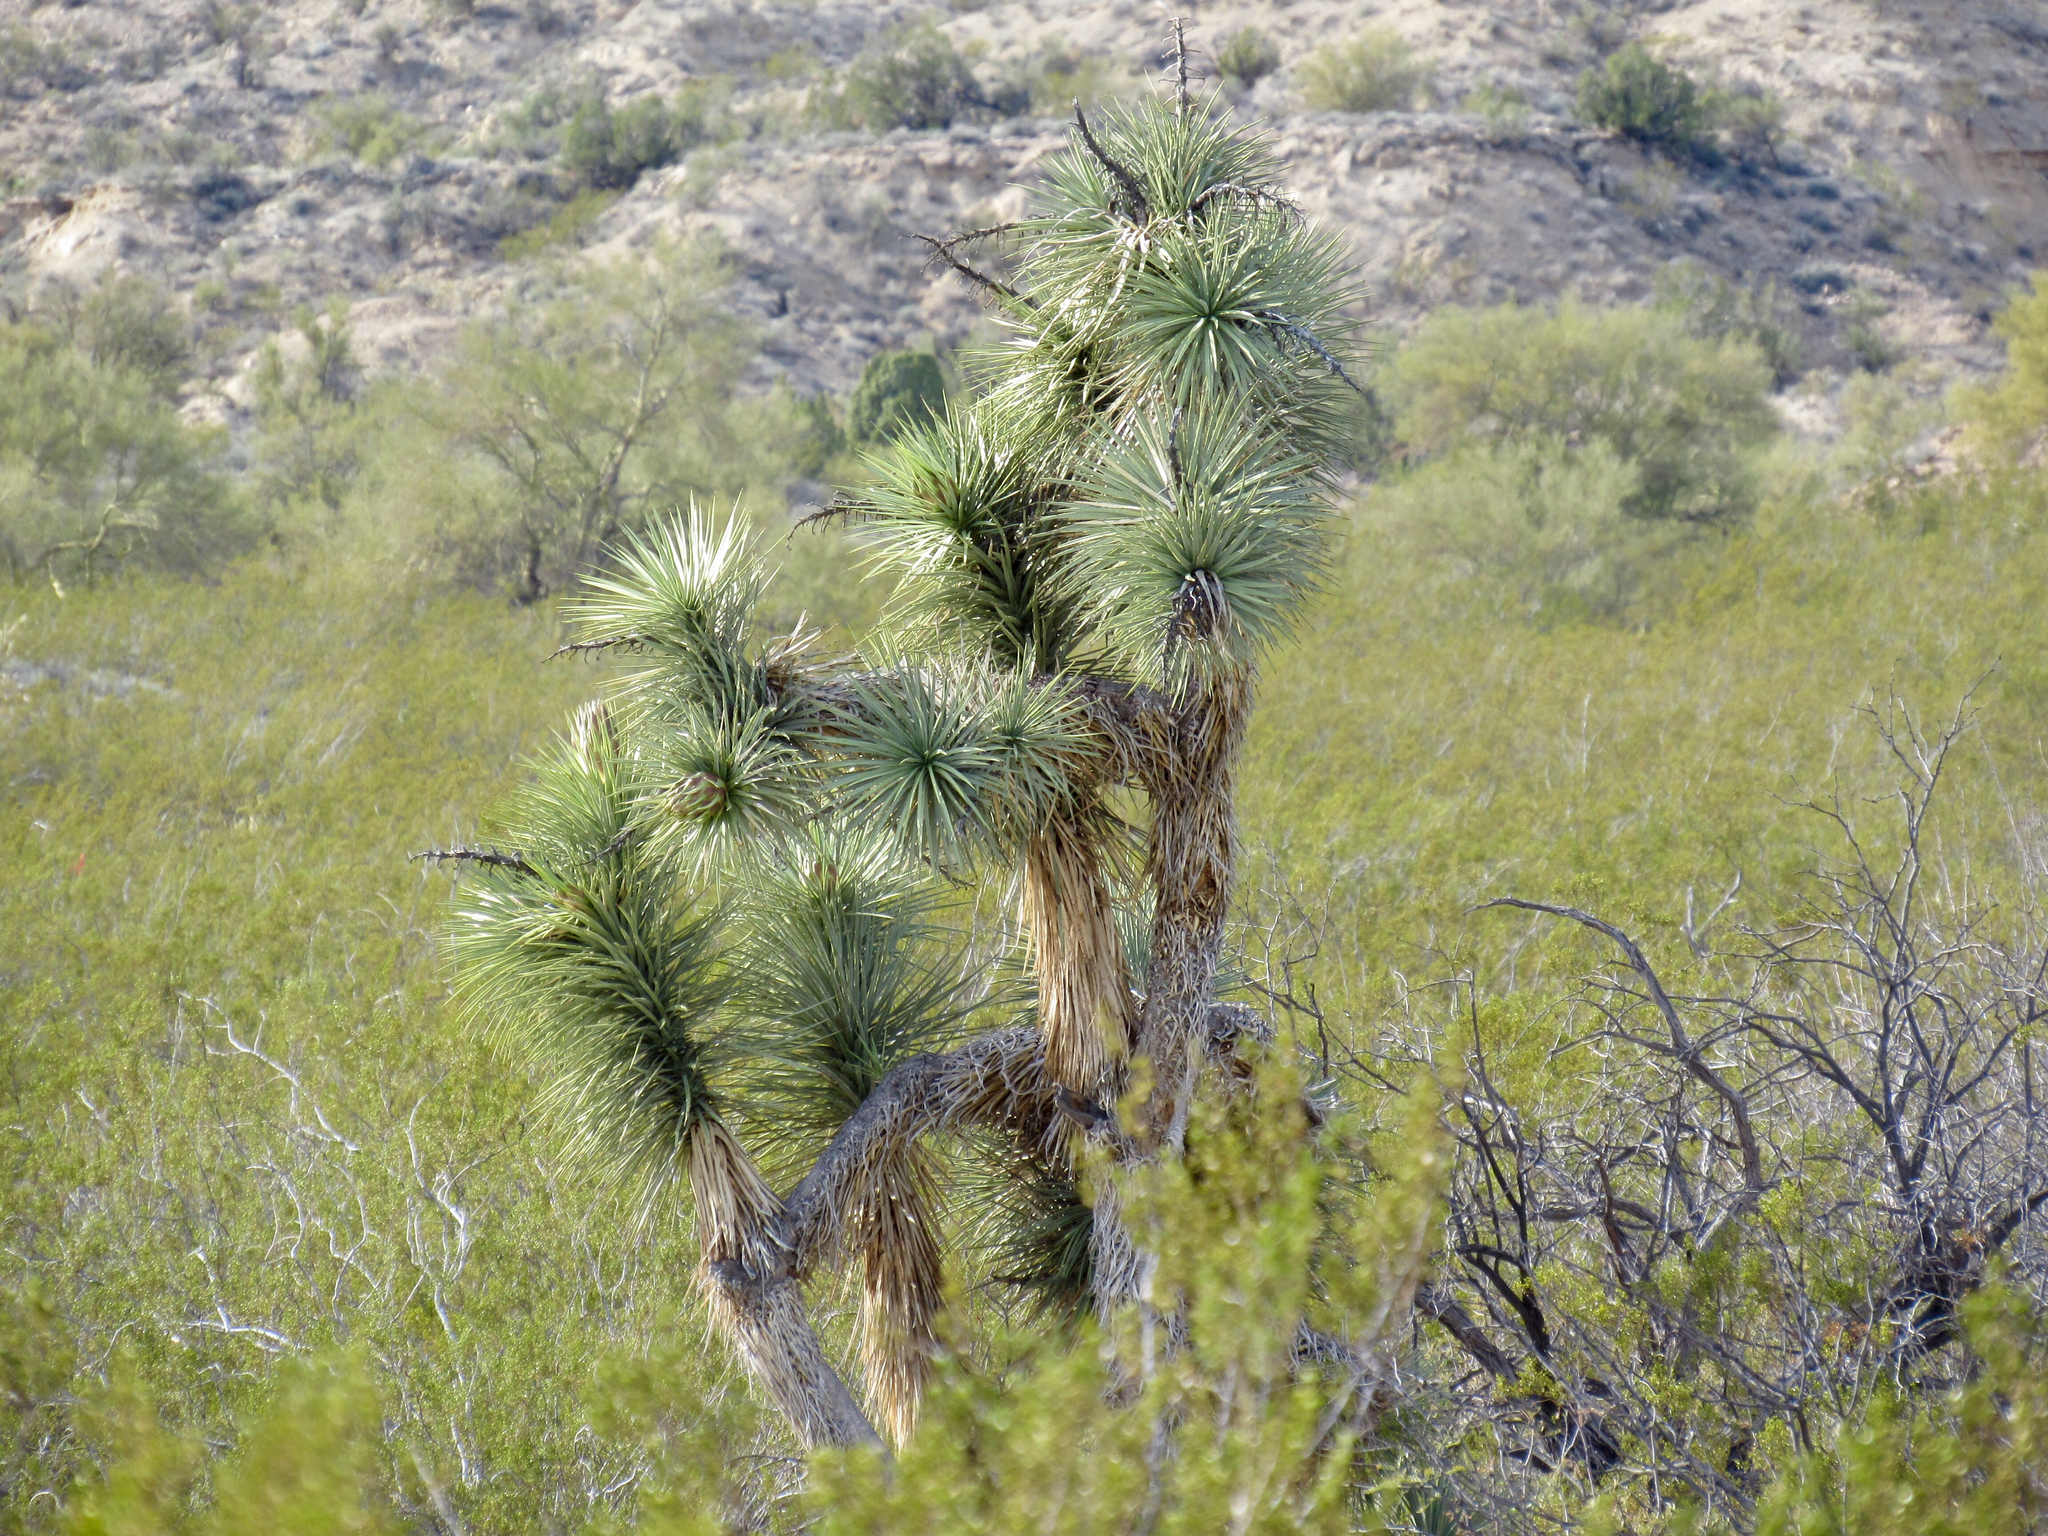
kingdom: Plantae
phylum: Tracheophyta
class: Liliopsida
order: Asparagales
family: Asparagaceae
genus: Yucca
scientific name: Yucca brevifolia
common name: Joshua tree
